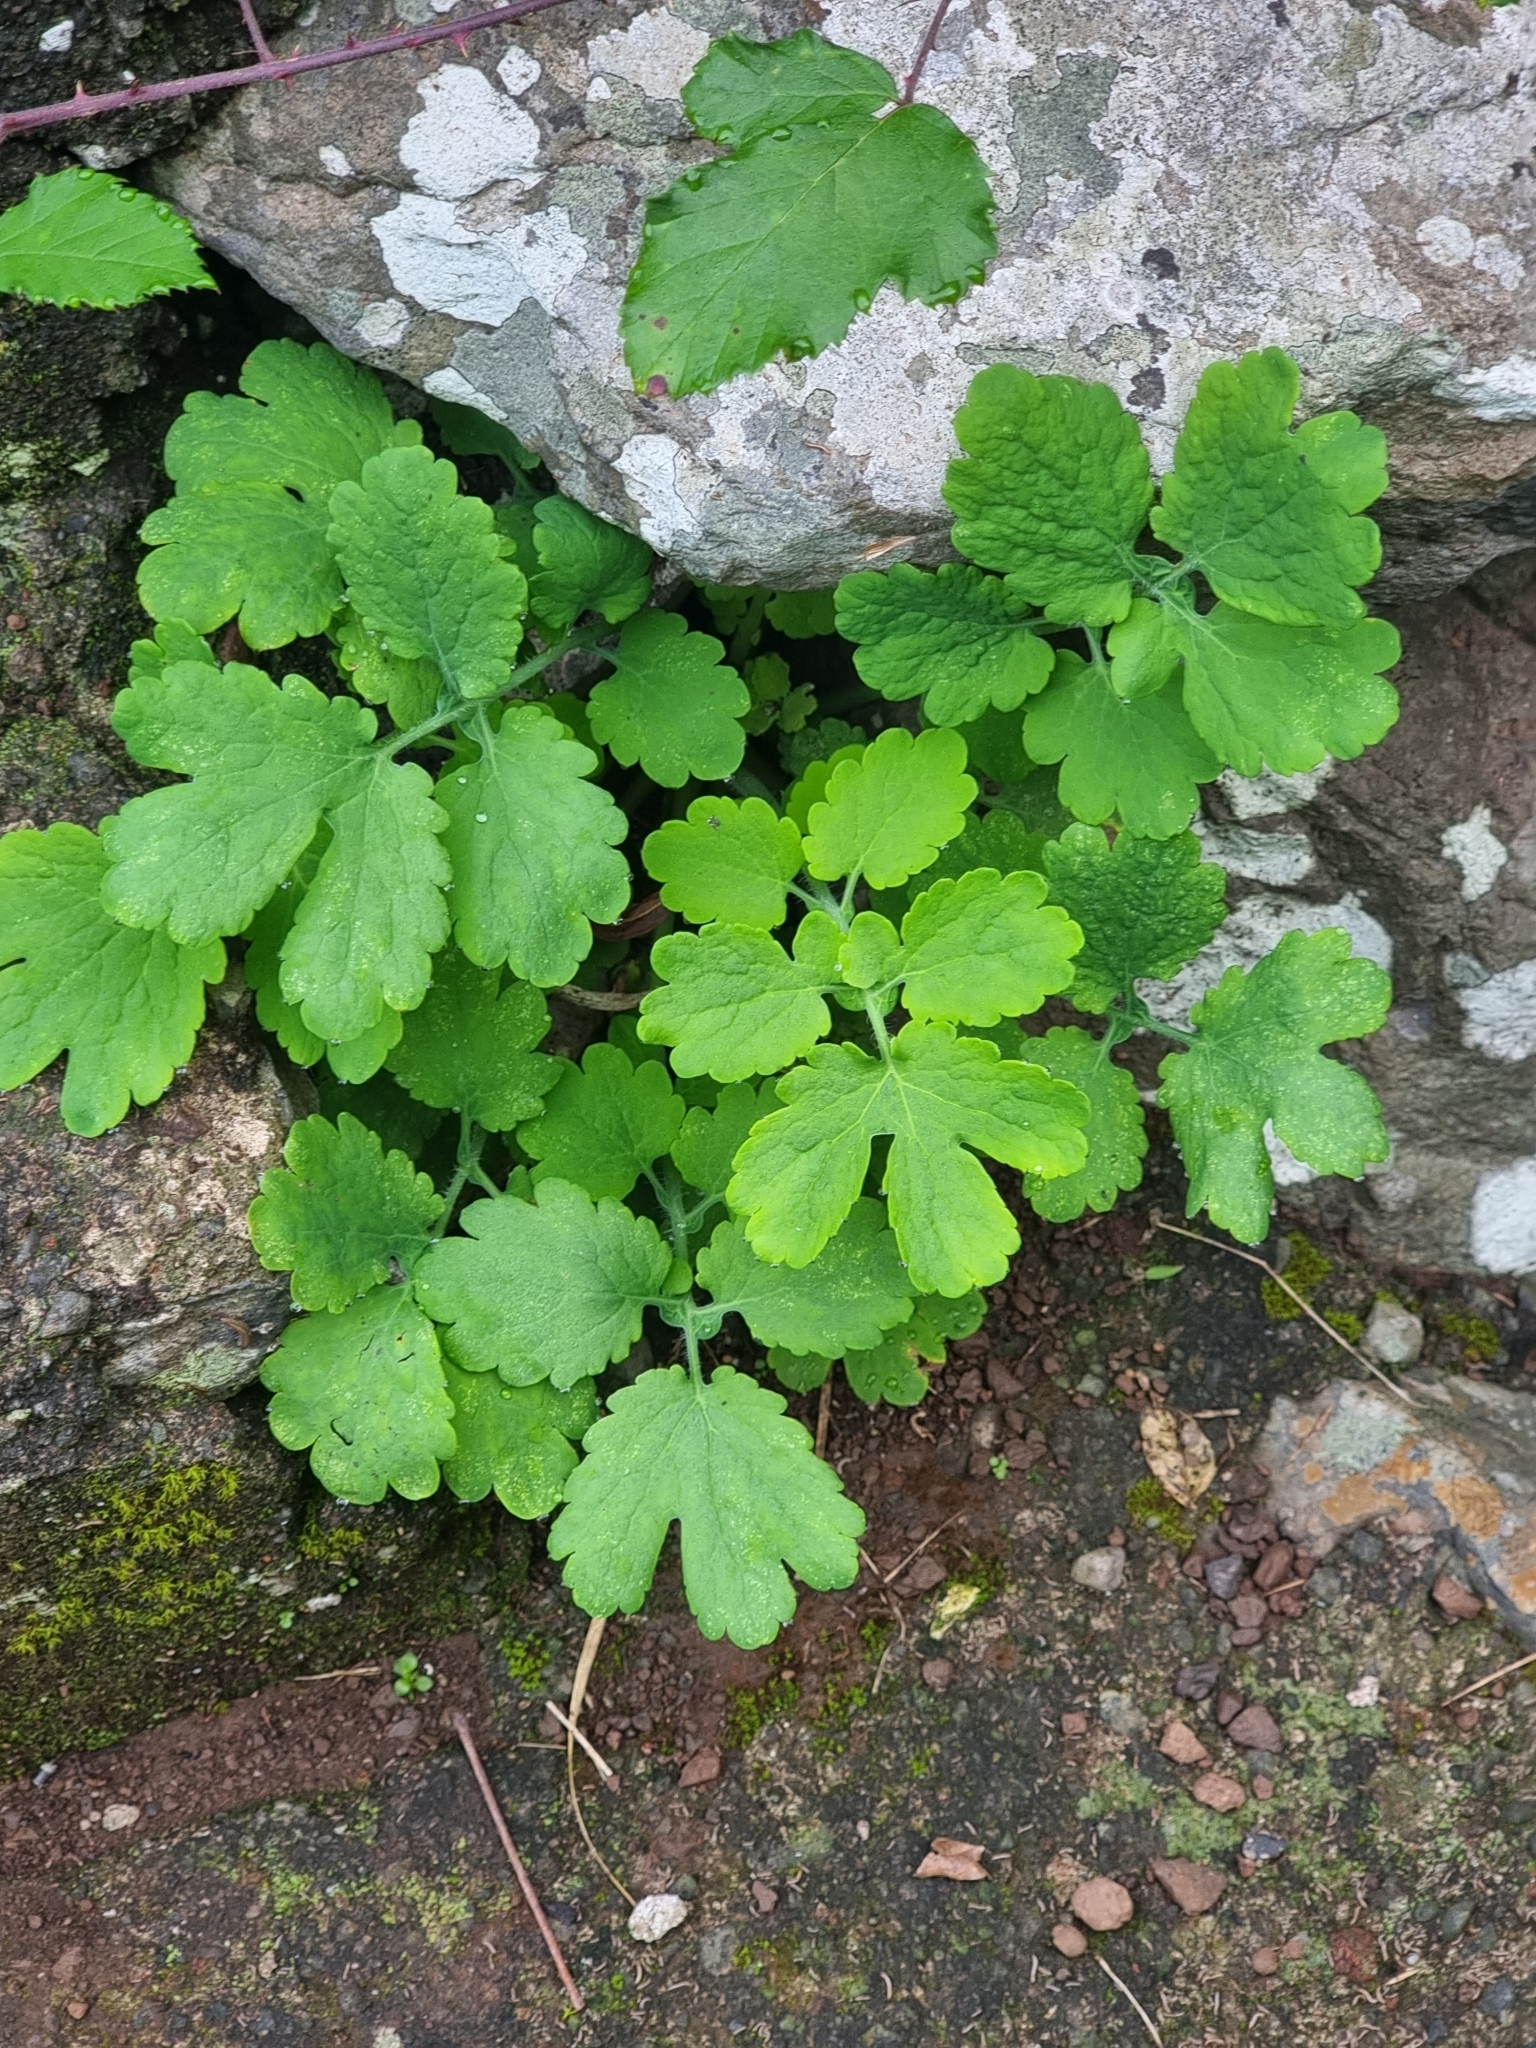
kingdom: Plantae
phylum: Tracheophyta
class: Magnoliopsida
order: Ranunculales
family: Papaveraceae
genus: Chelidonium
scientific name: Chelidonium majus
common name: Greater celandine
